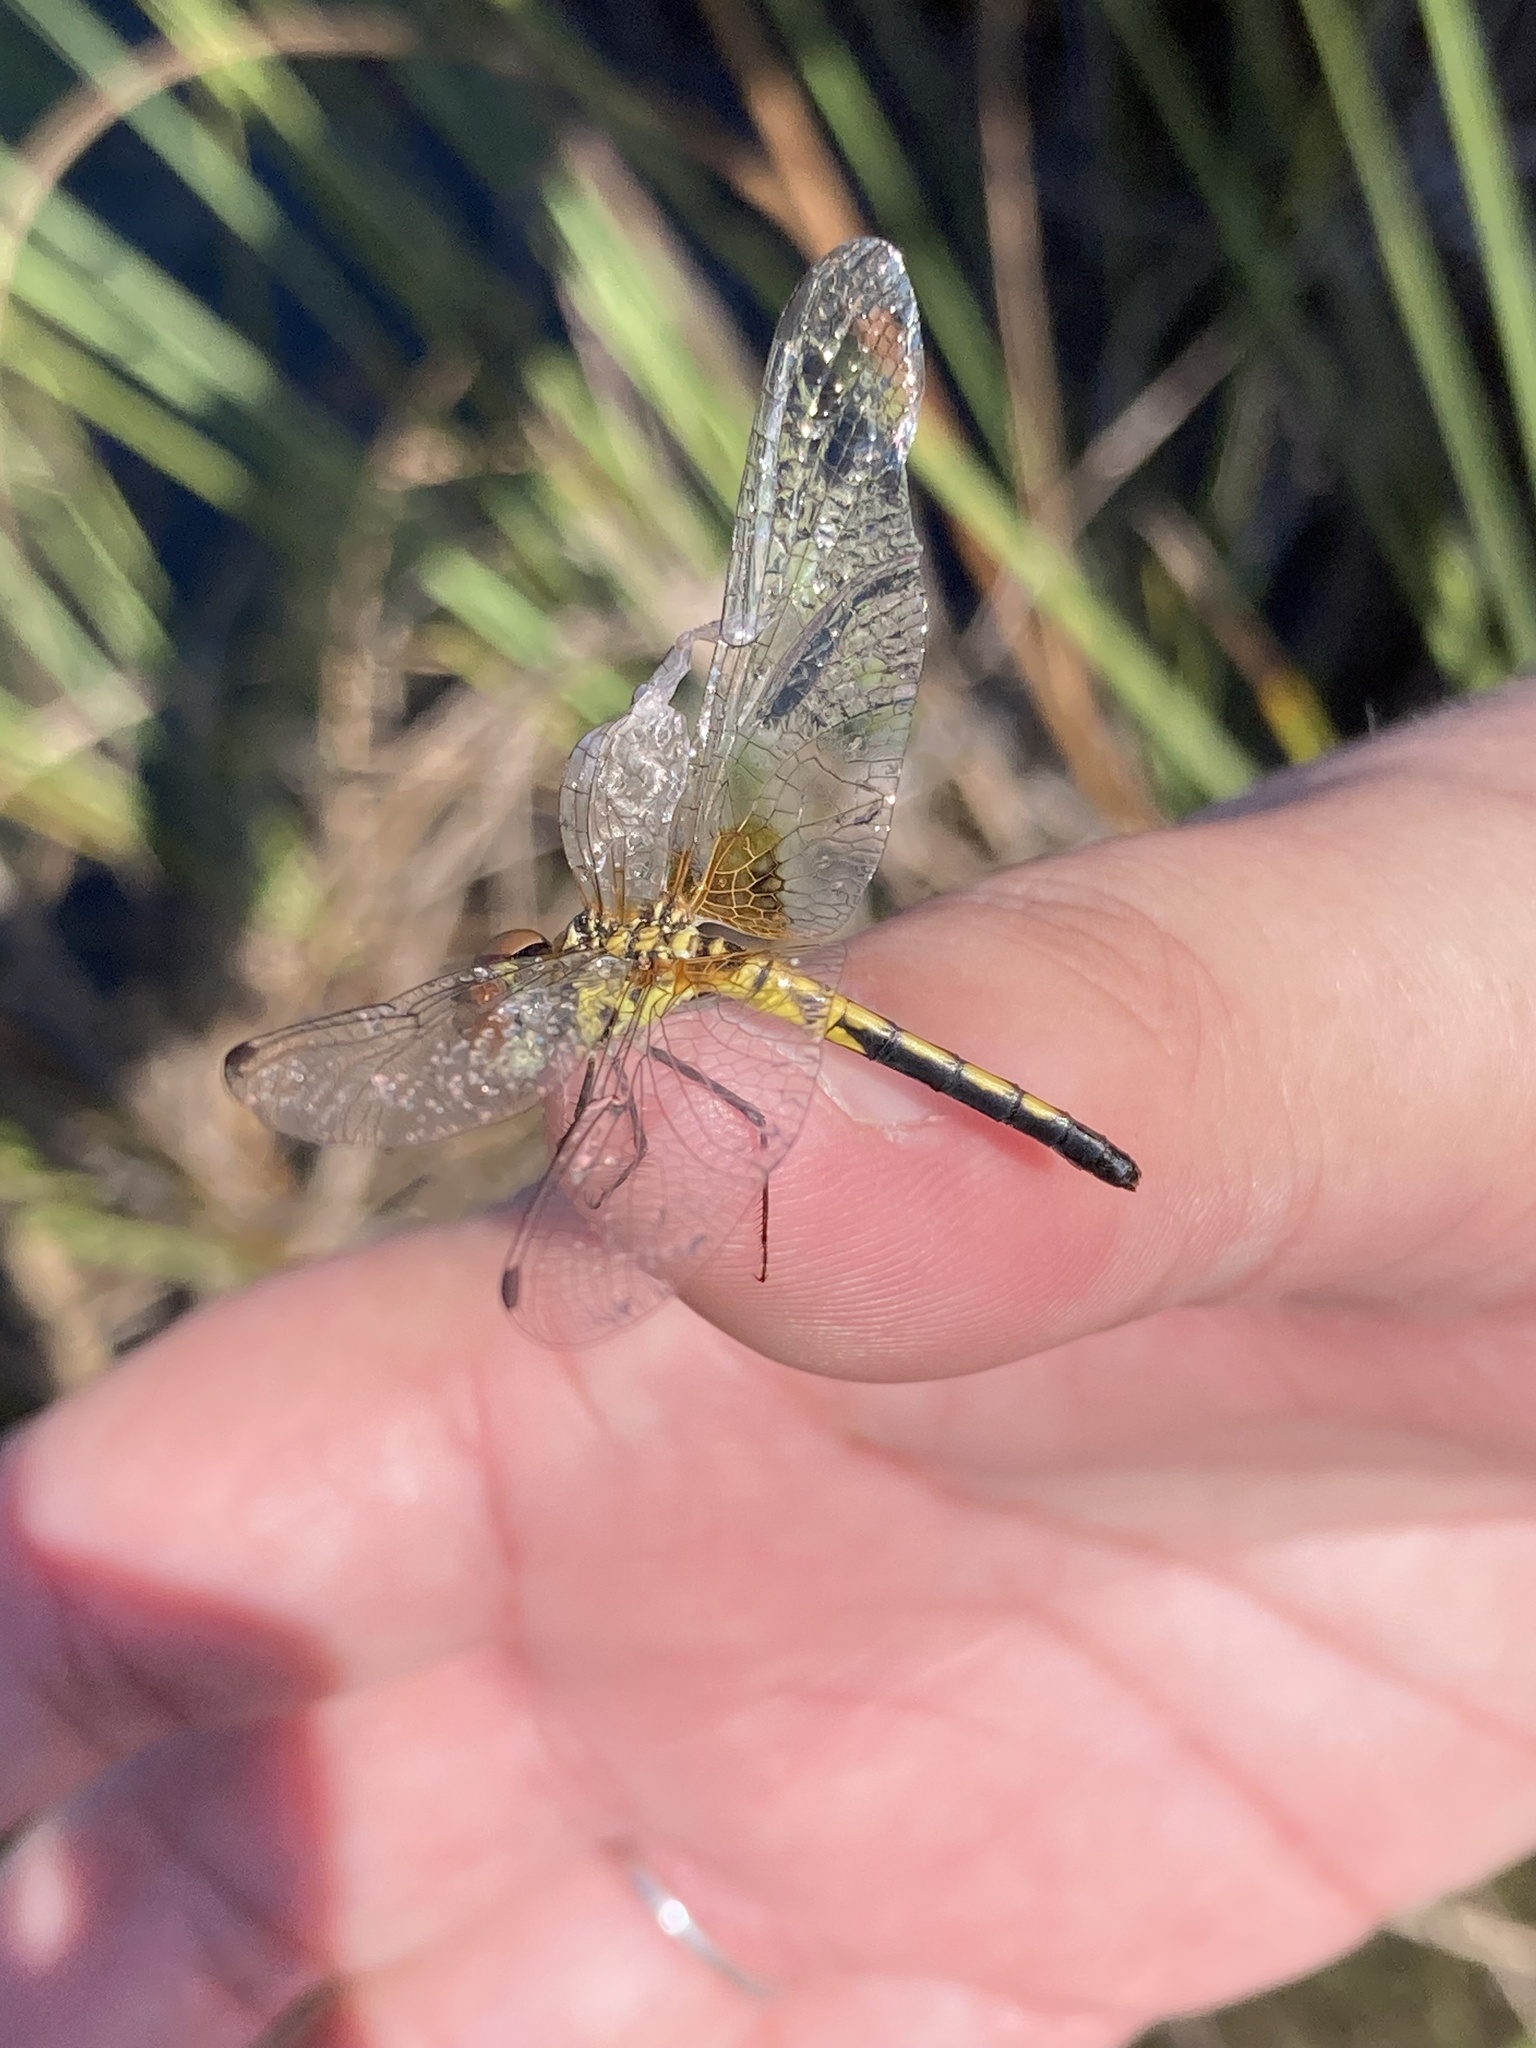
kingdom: Animalia
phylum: Arthropoda
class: Insecta
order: Odonata
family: Libellulidae
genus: Celithemis
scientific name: Celithemis bertha
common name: Red-veined pennant
